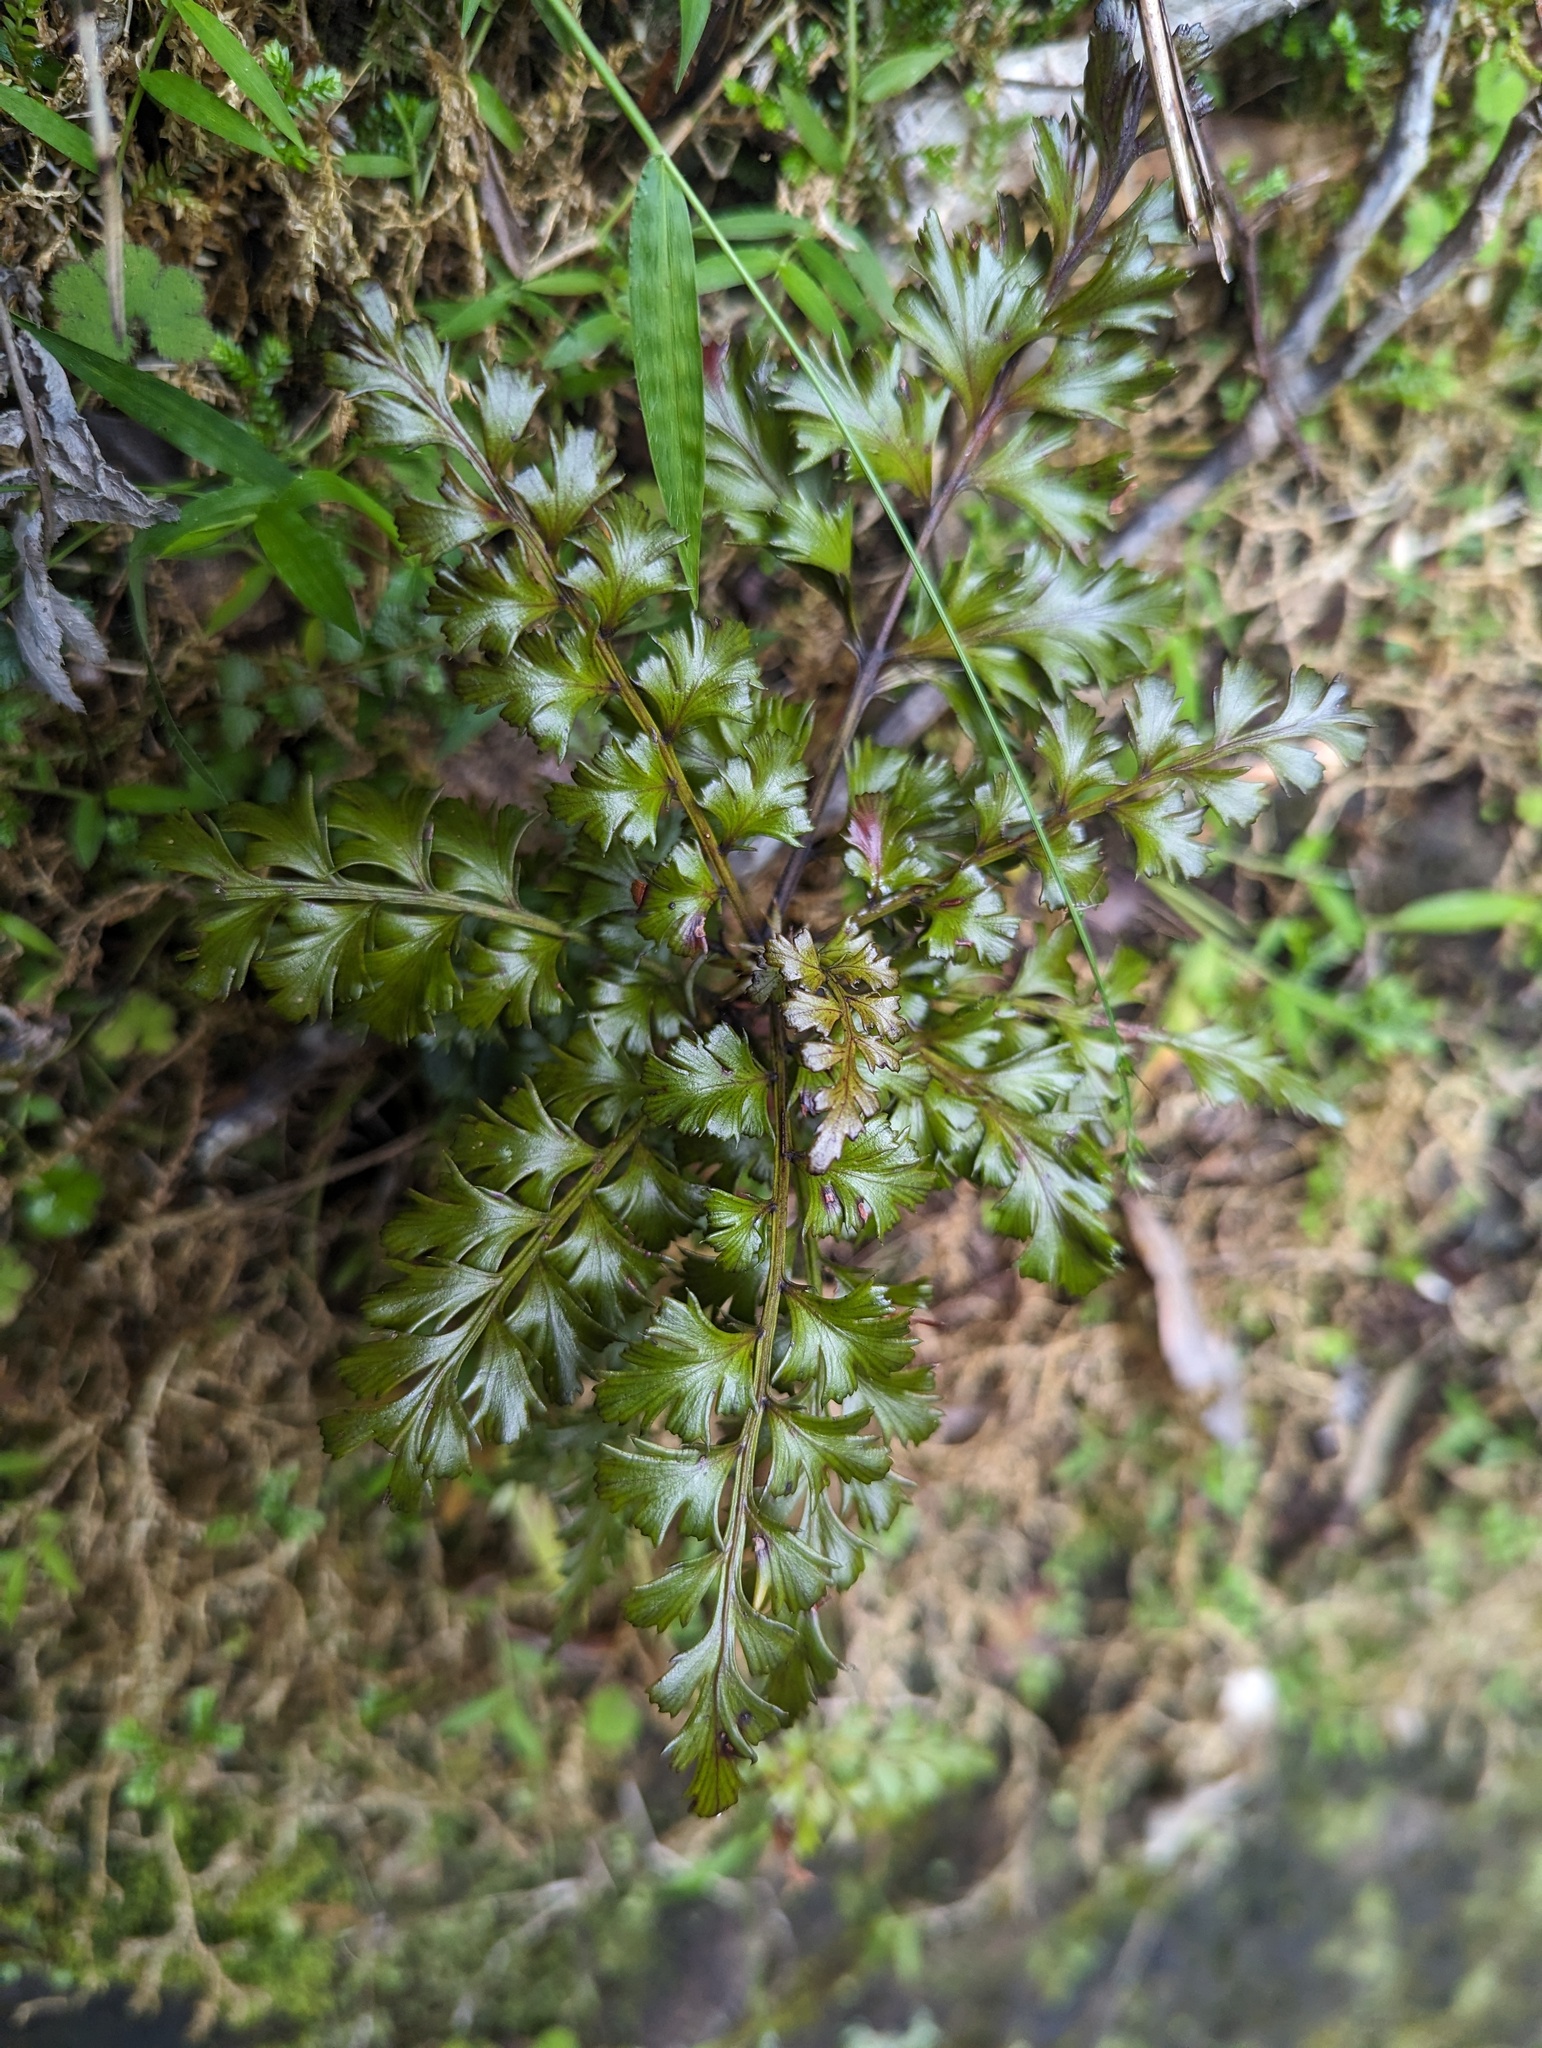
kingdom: Plantae
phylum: Tracheophyta
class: Pinopsida
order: Pinales
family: Phyllocladaceae
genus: Phyllocladus
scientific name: Phyllocladus trichomanoides
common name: Celery pine
